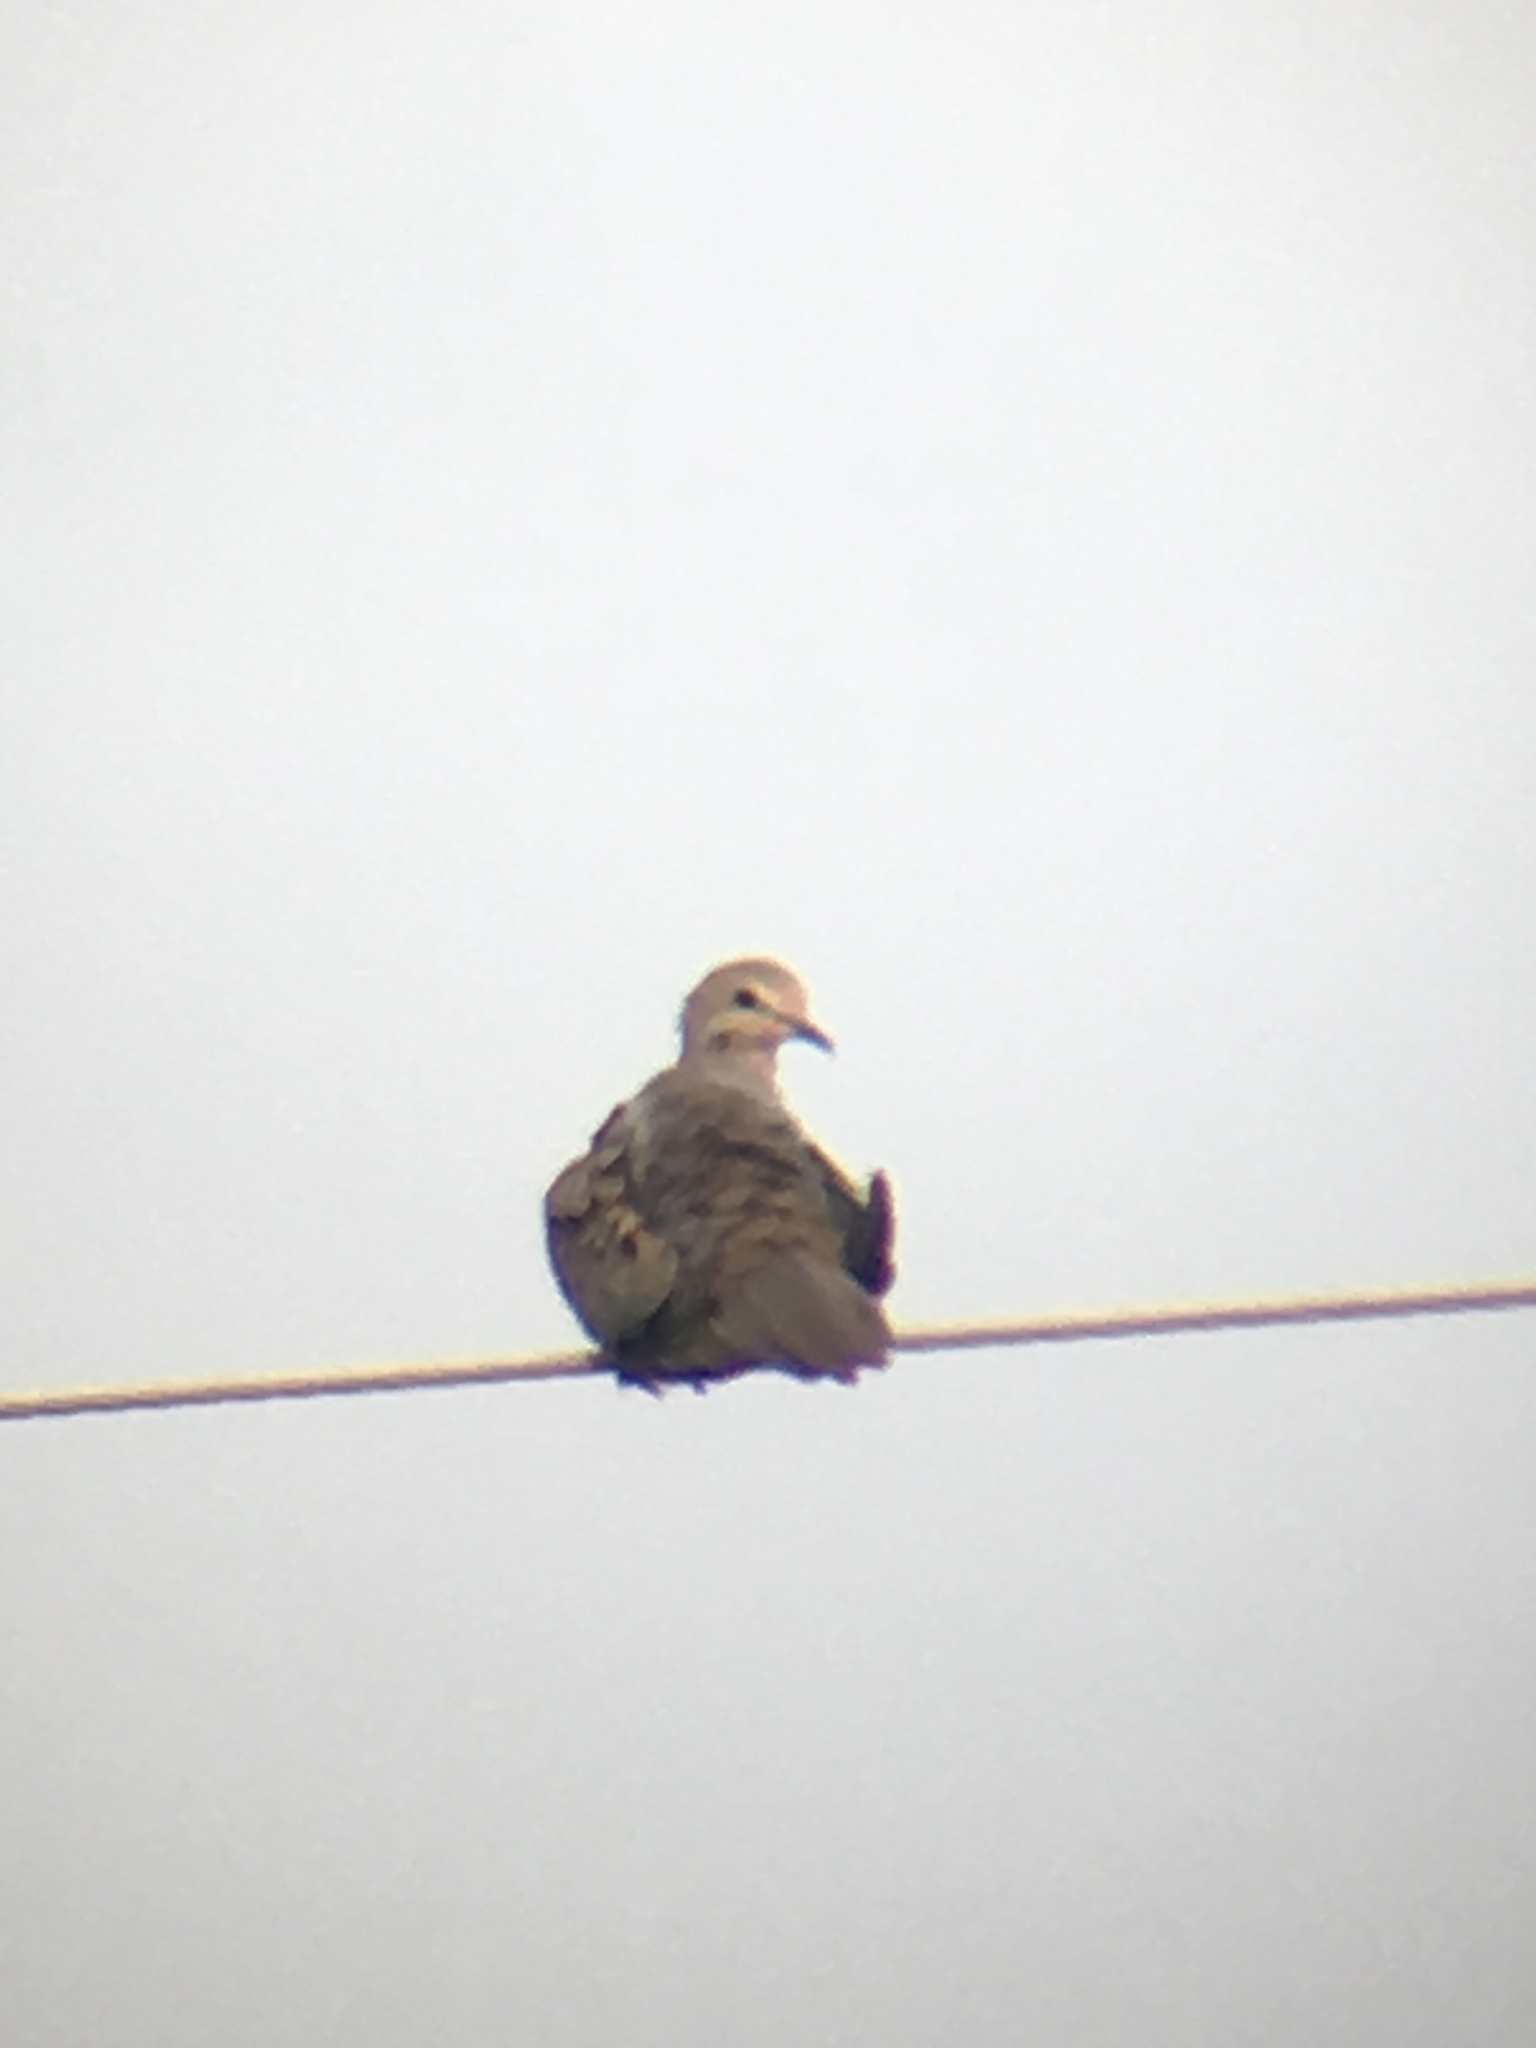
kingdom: Animalia
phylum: Chordata
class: Aves
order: Columbiformes
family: Columbidae
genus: Zenaida
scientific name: Zenaida macroura
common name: Mourning dove
